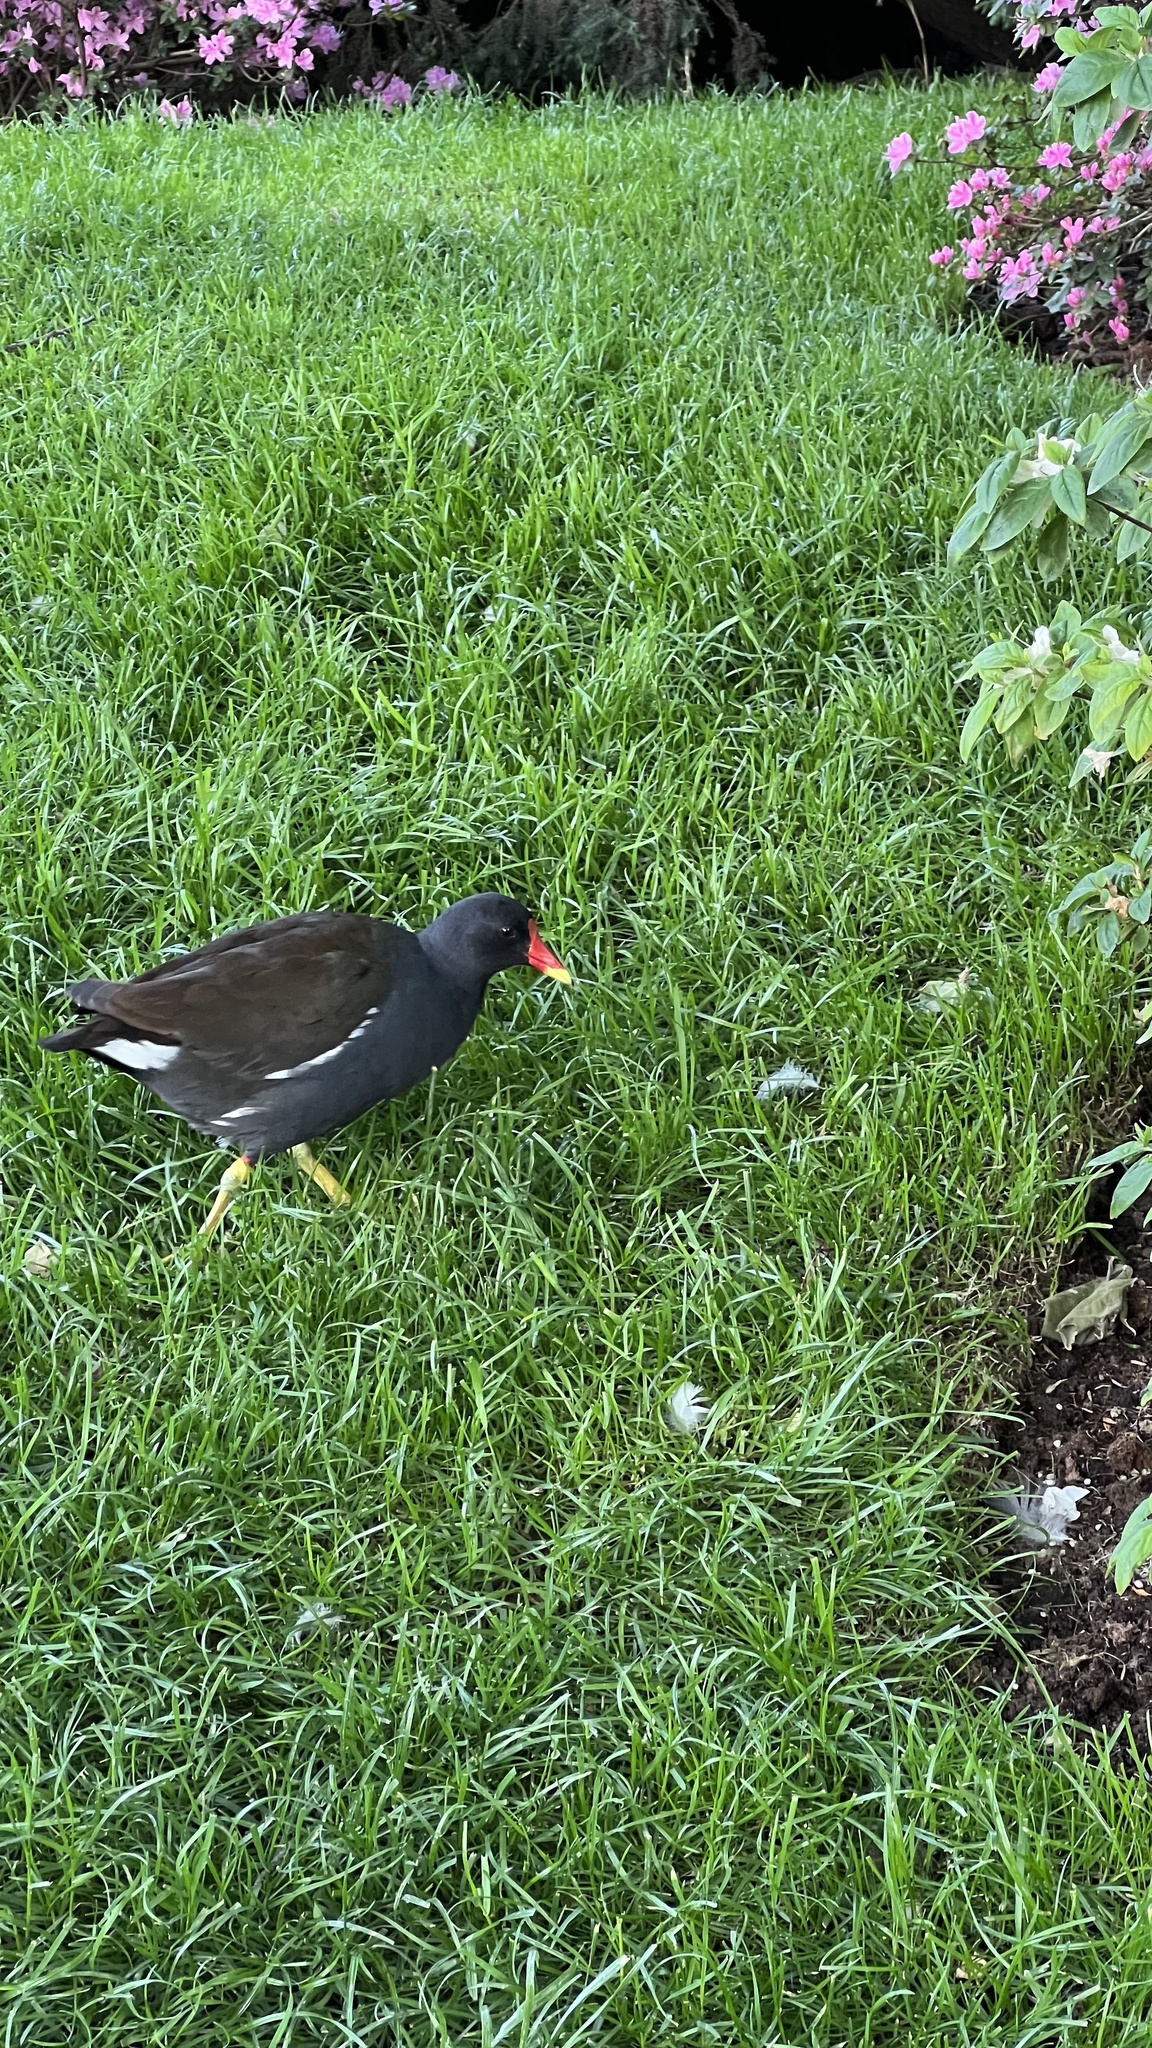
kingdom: Animalia
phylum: Chordata
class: Aves
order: Gruiformes
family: Rallidae
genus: Gallinula
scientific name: Gallinula chloropus
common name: Common moorhen
